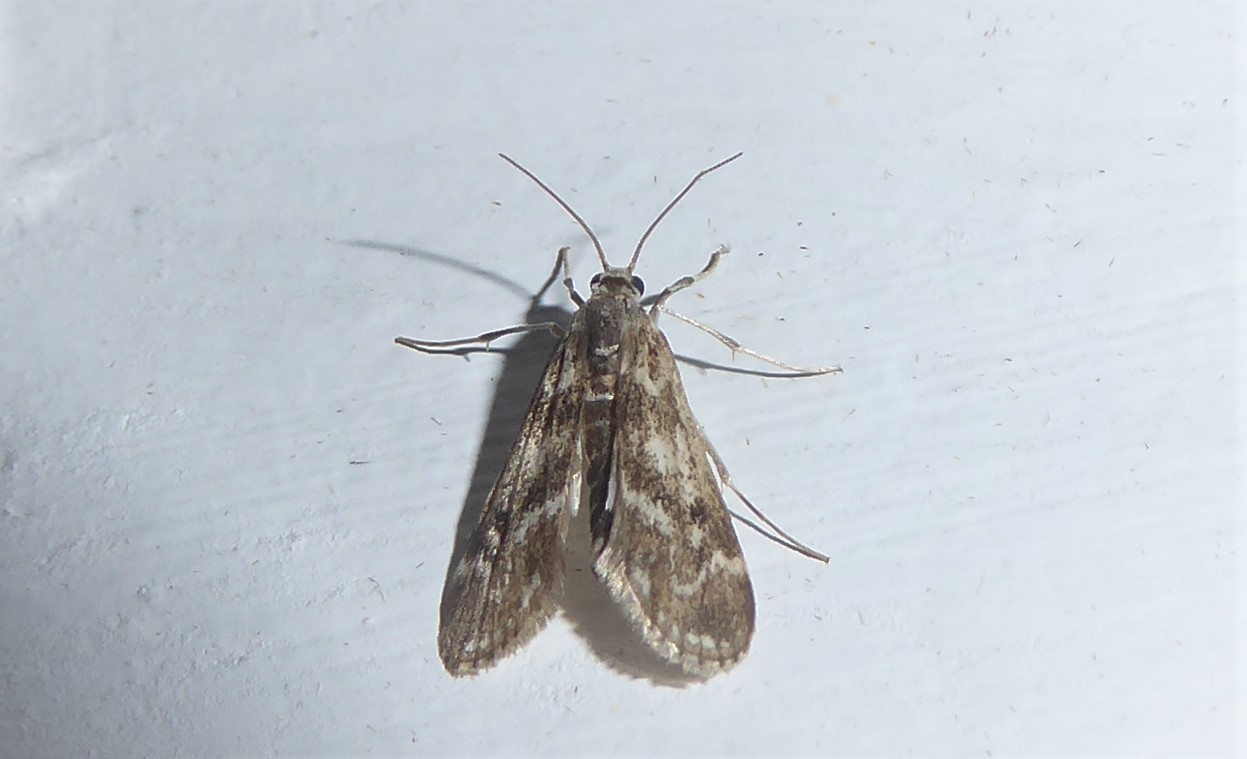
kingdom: Animalia
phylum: Arthropoda
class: Insecta
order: Lepidoptera
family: Crambidae
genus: Hygraula
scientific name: Hygraula nitens
